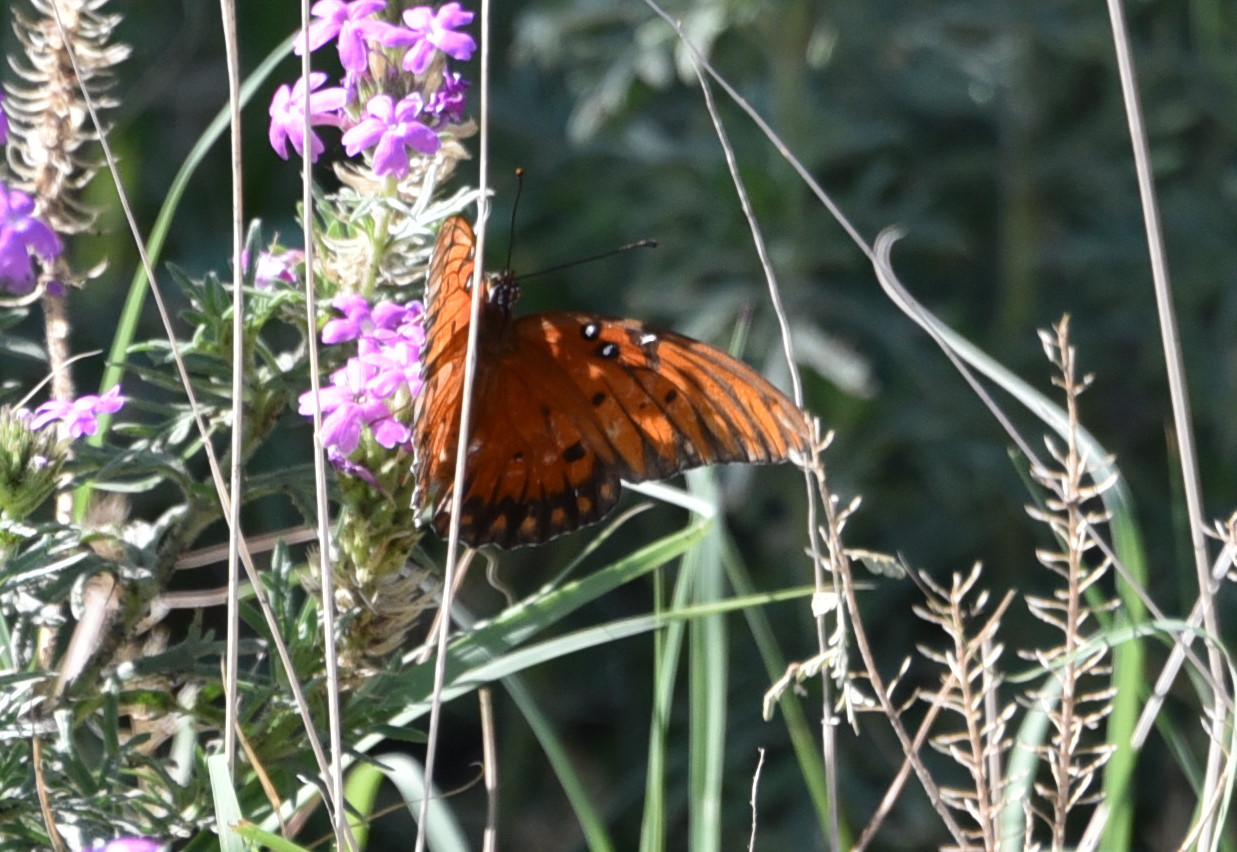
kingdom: Animalia
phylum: Arthropoda
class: Insecta
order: Lepidoptera
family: Nymphalidae
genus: Dione
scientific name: Dione vanillae
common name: Gulf fritillary
